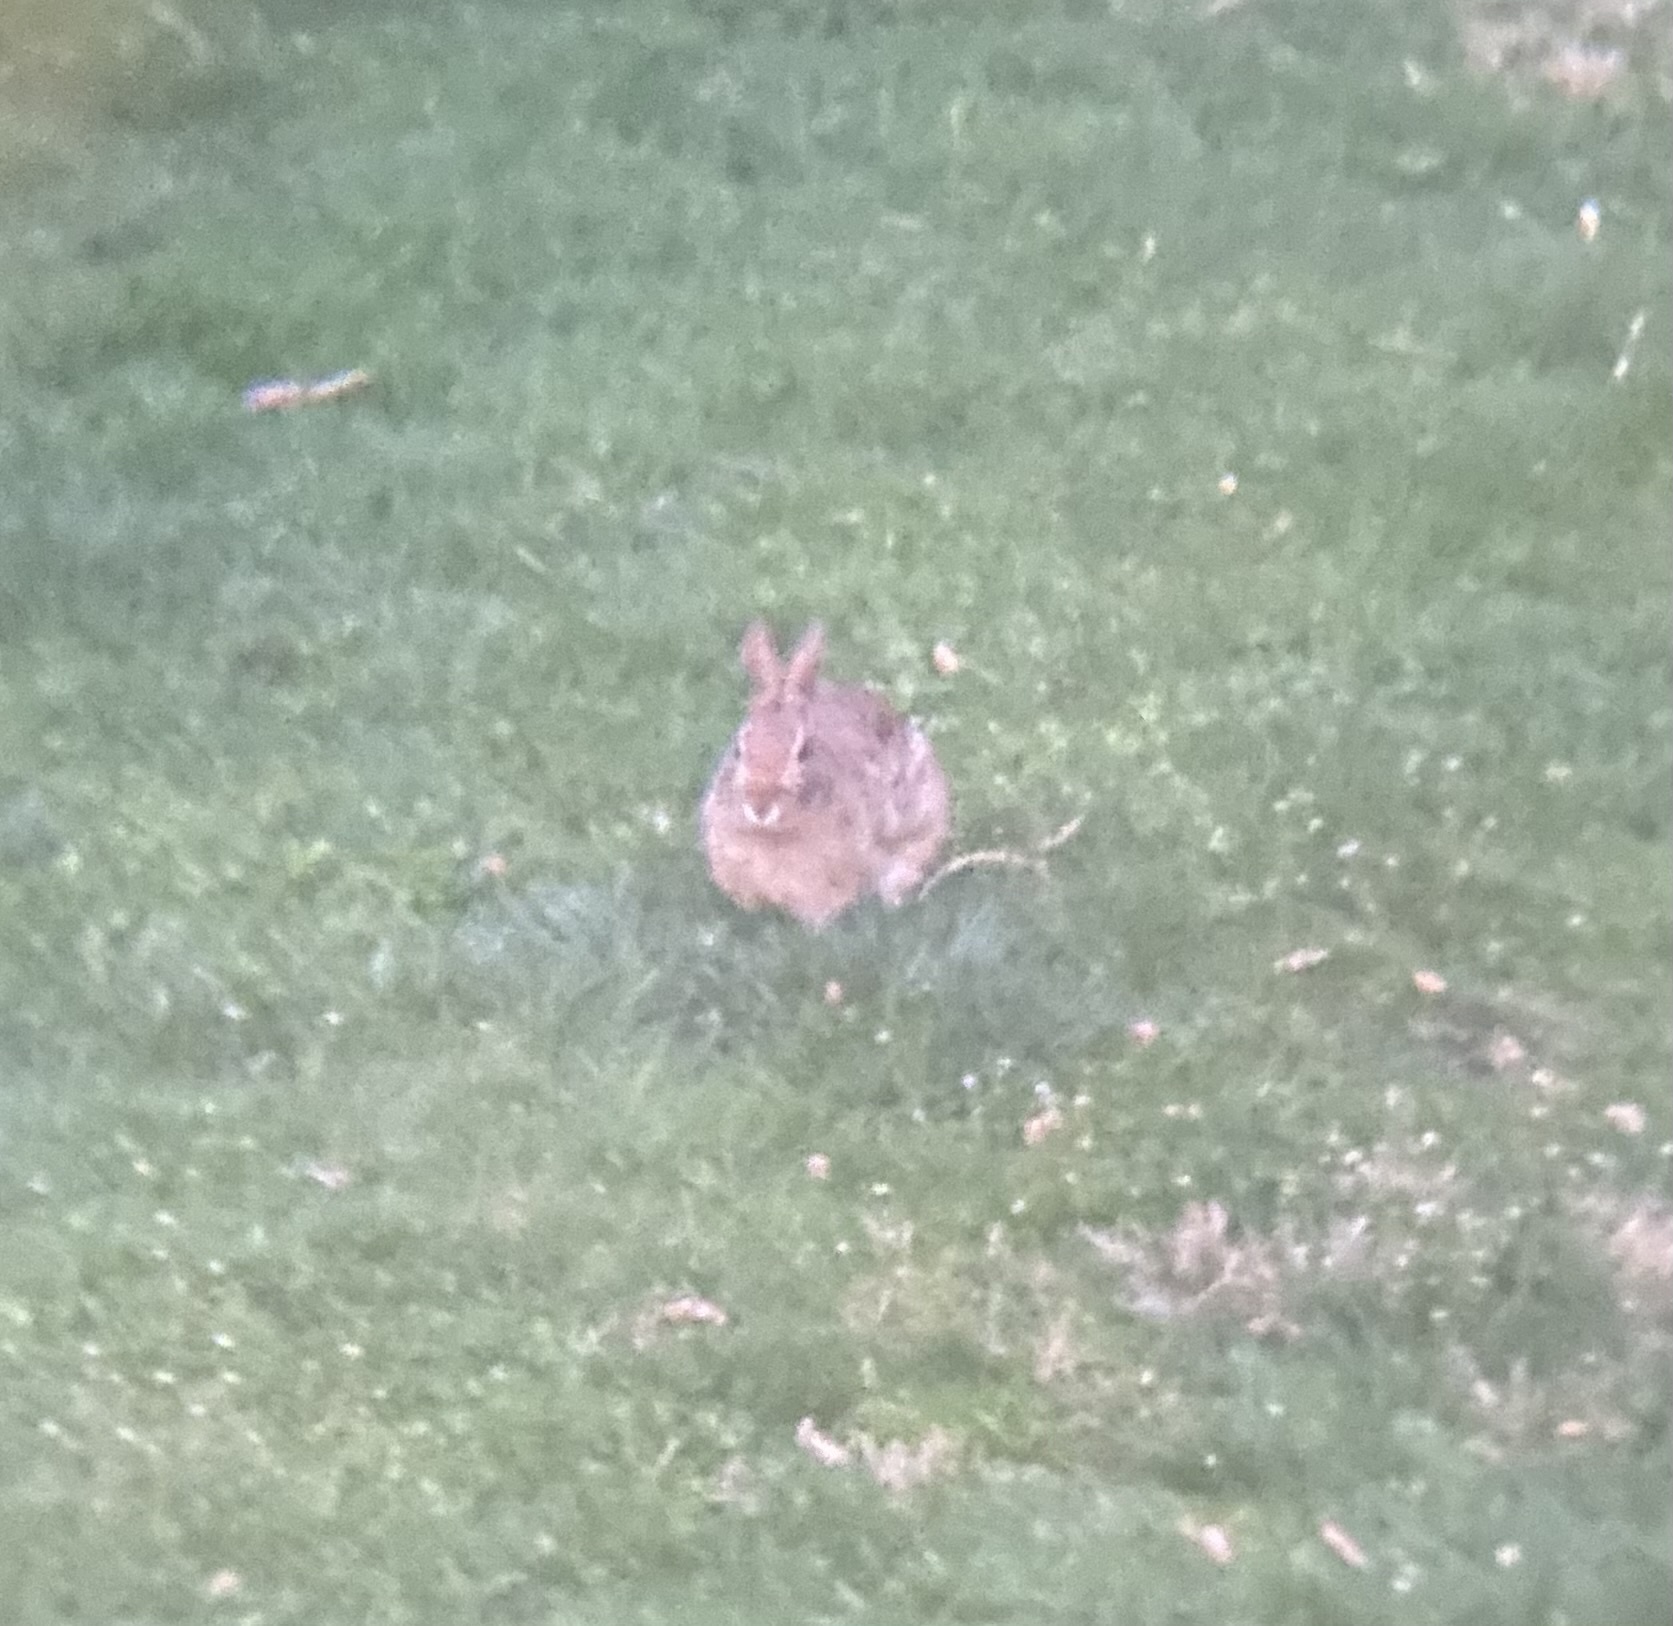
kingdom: Animalia
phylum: Chordata
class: Mammalia
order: Lagomorpha
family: Leporidae
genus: Sylvilagus
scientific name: Sylvilagus floridanus
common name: Eastern cottontail
